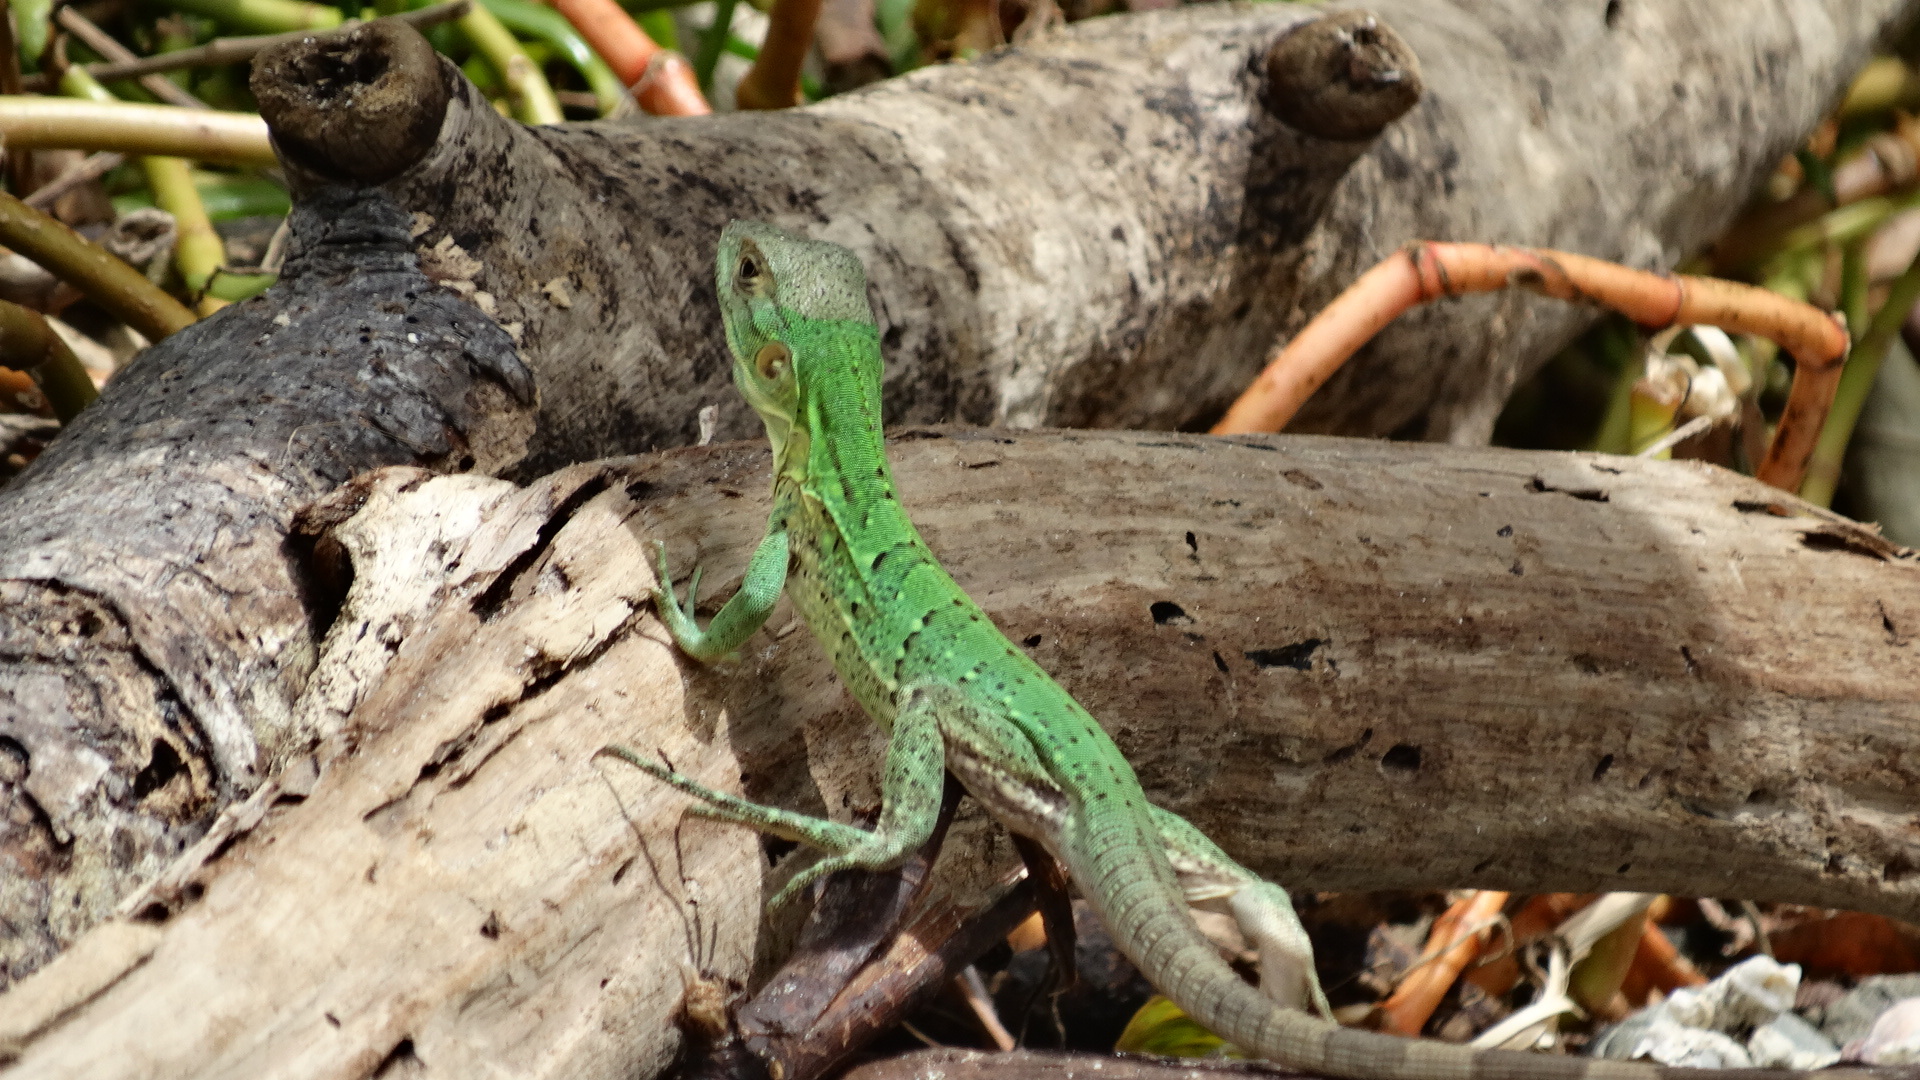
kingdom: Animalia
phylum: Chordata
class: Squamata
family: Iguanidae
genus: Ctenosaura
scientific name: Ctenosaura similis
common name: Black spiny-tailed iguana
